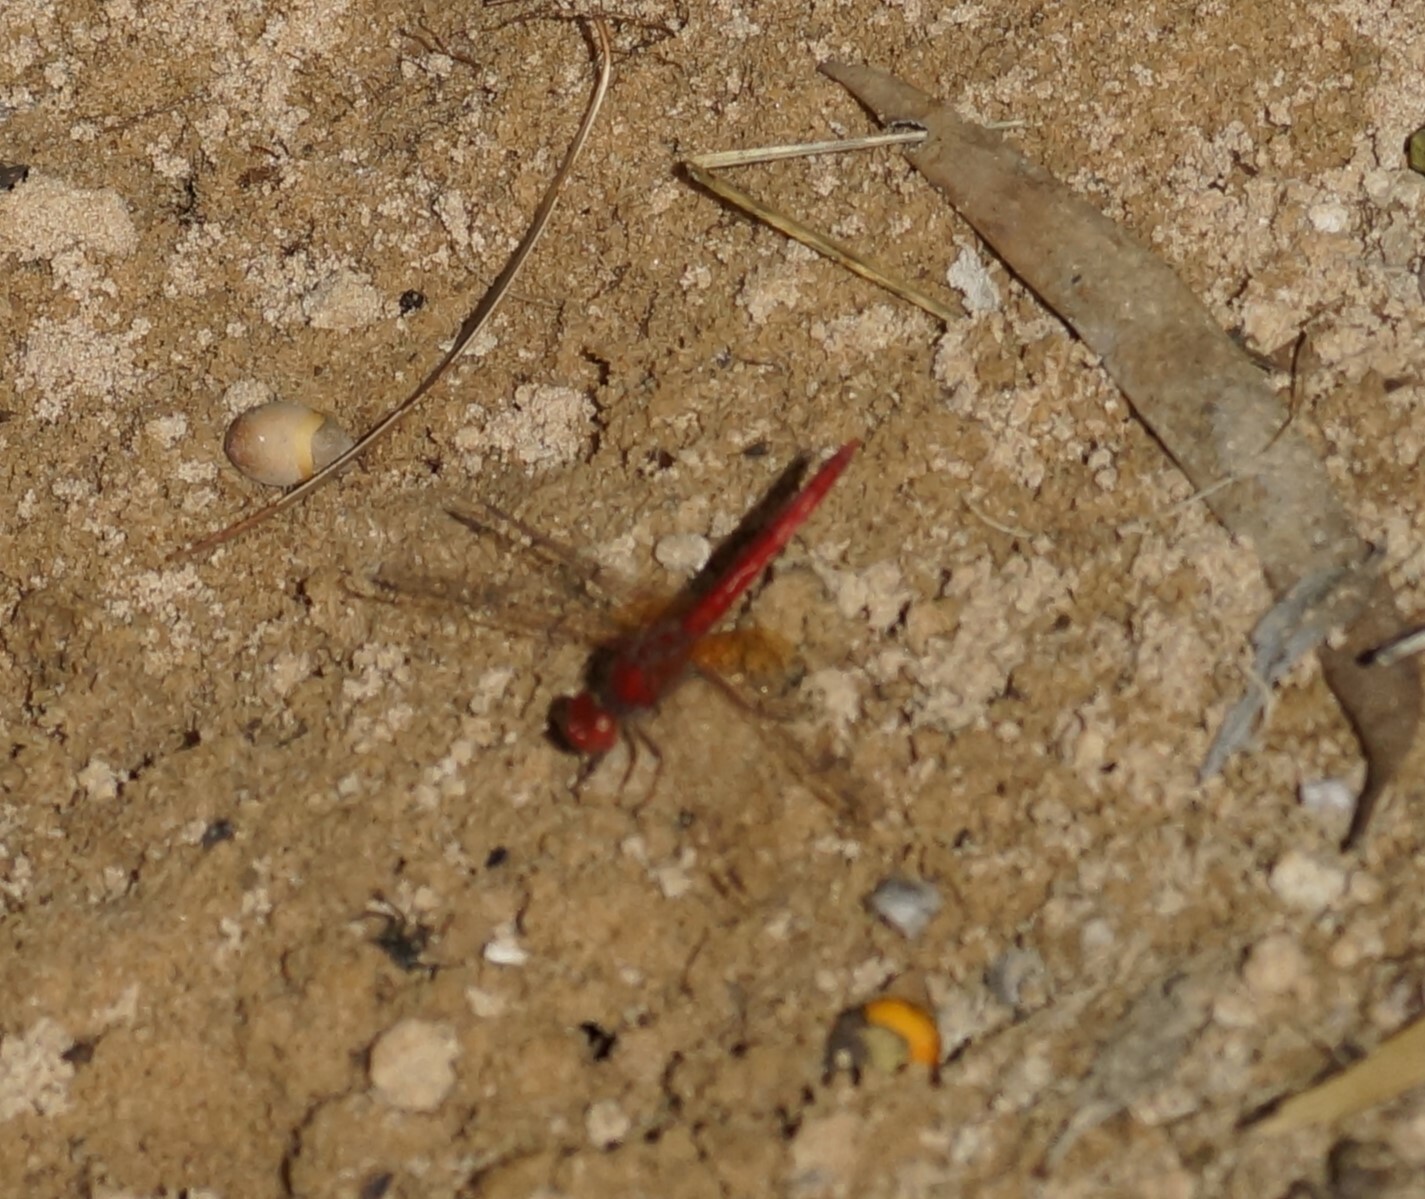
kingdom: Animalia
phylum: Arthropoda
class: Insecta
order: Odonata
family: Libellulidae
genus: Diplacodes
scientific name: Diplacodes haematodes
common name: Scarlet percher
